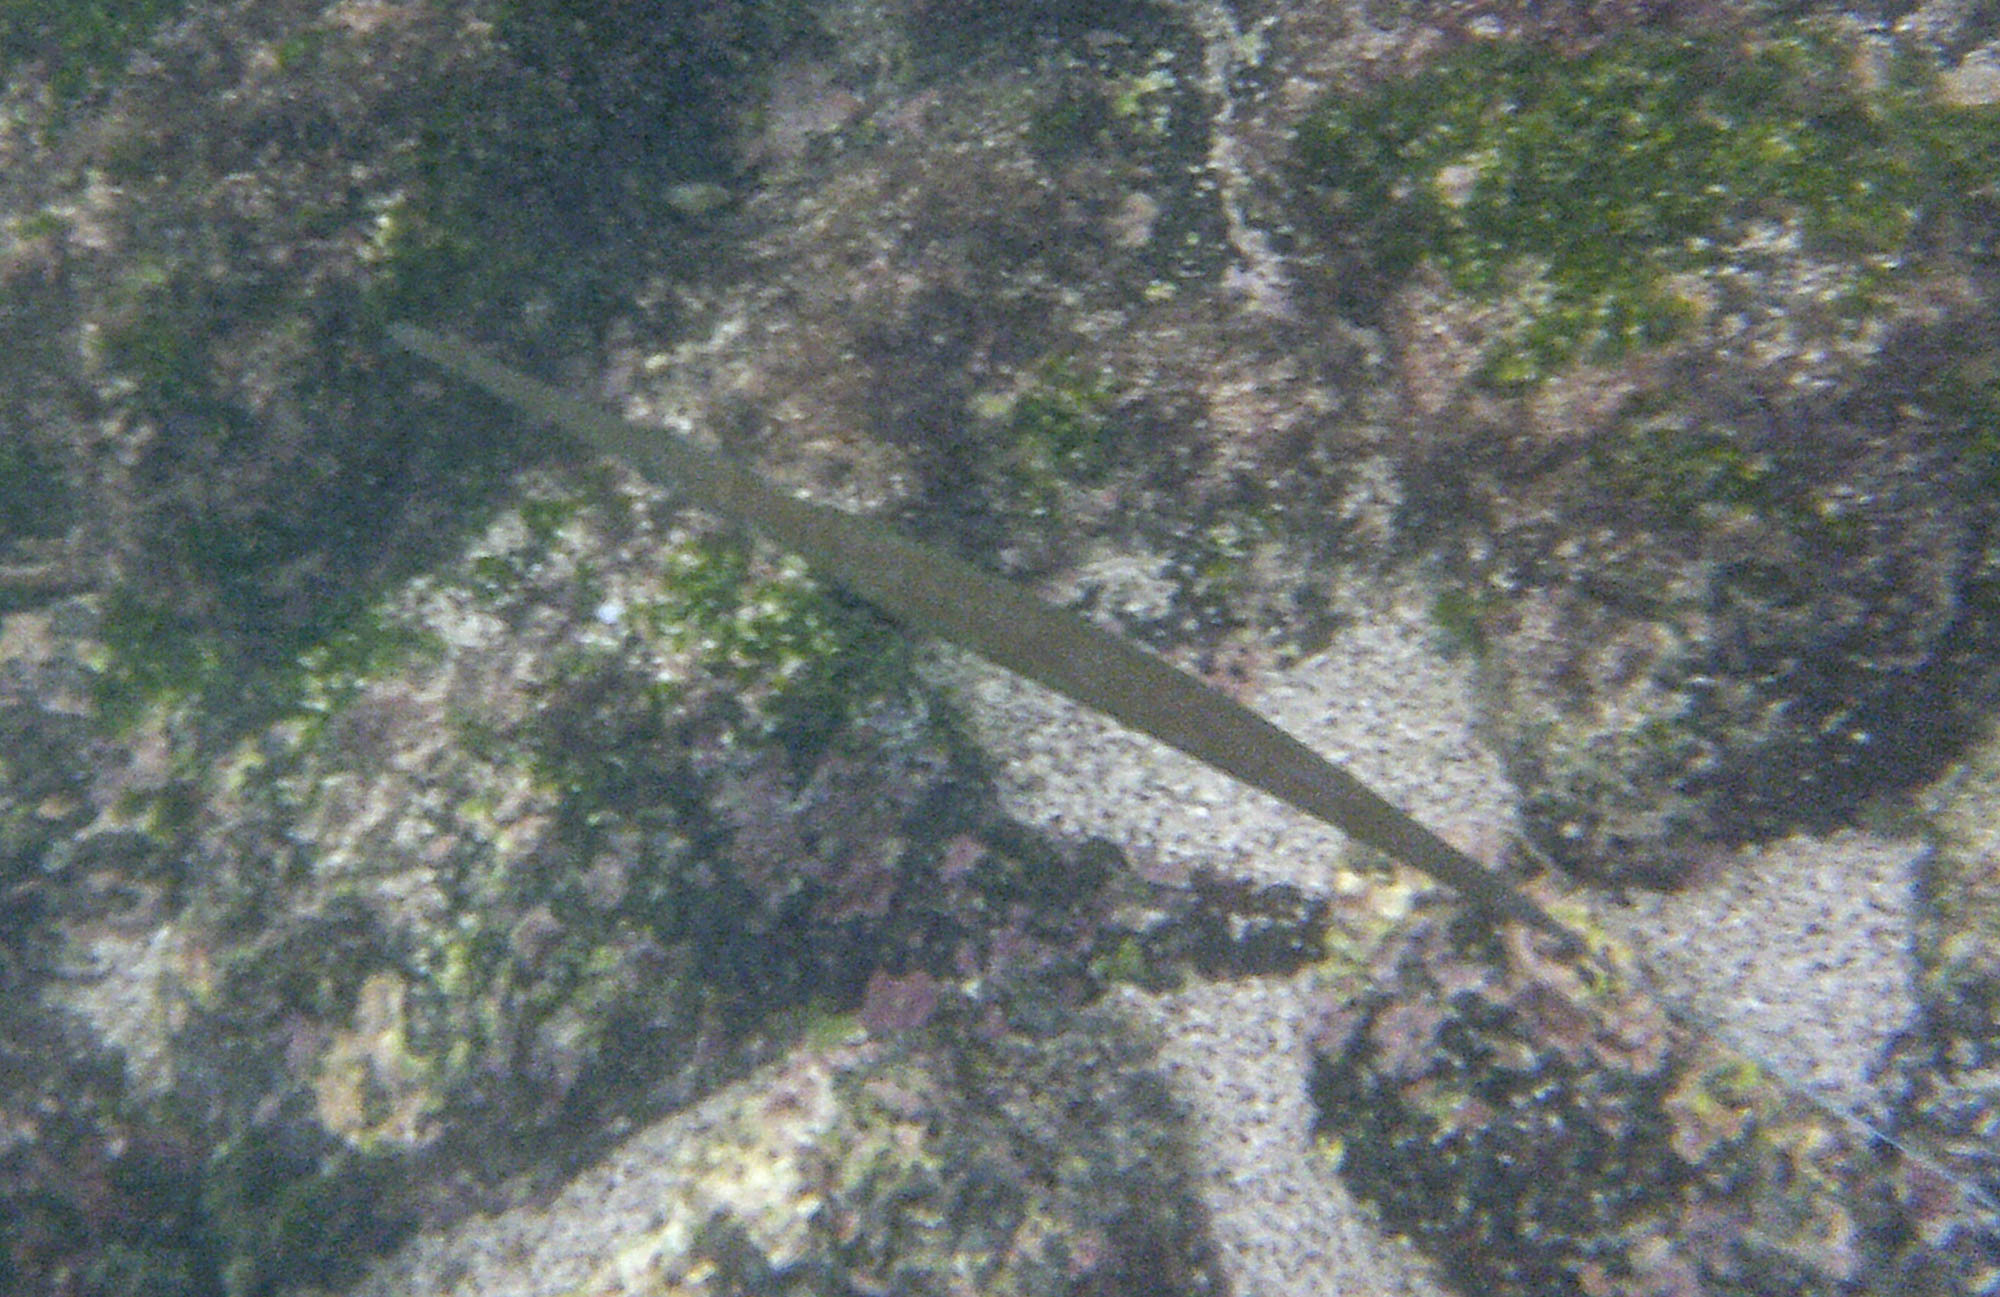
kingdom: Animalia
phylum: Chordata
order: Syngnathiformes
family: Fistulariidae
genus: Fistularia
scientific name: Fistularia commersonii
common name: Bluespotted cornetfish
